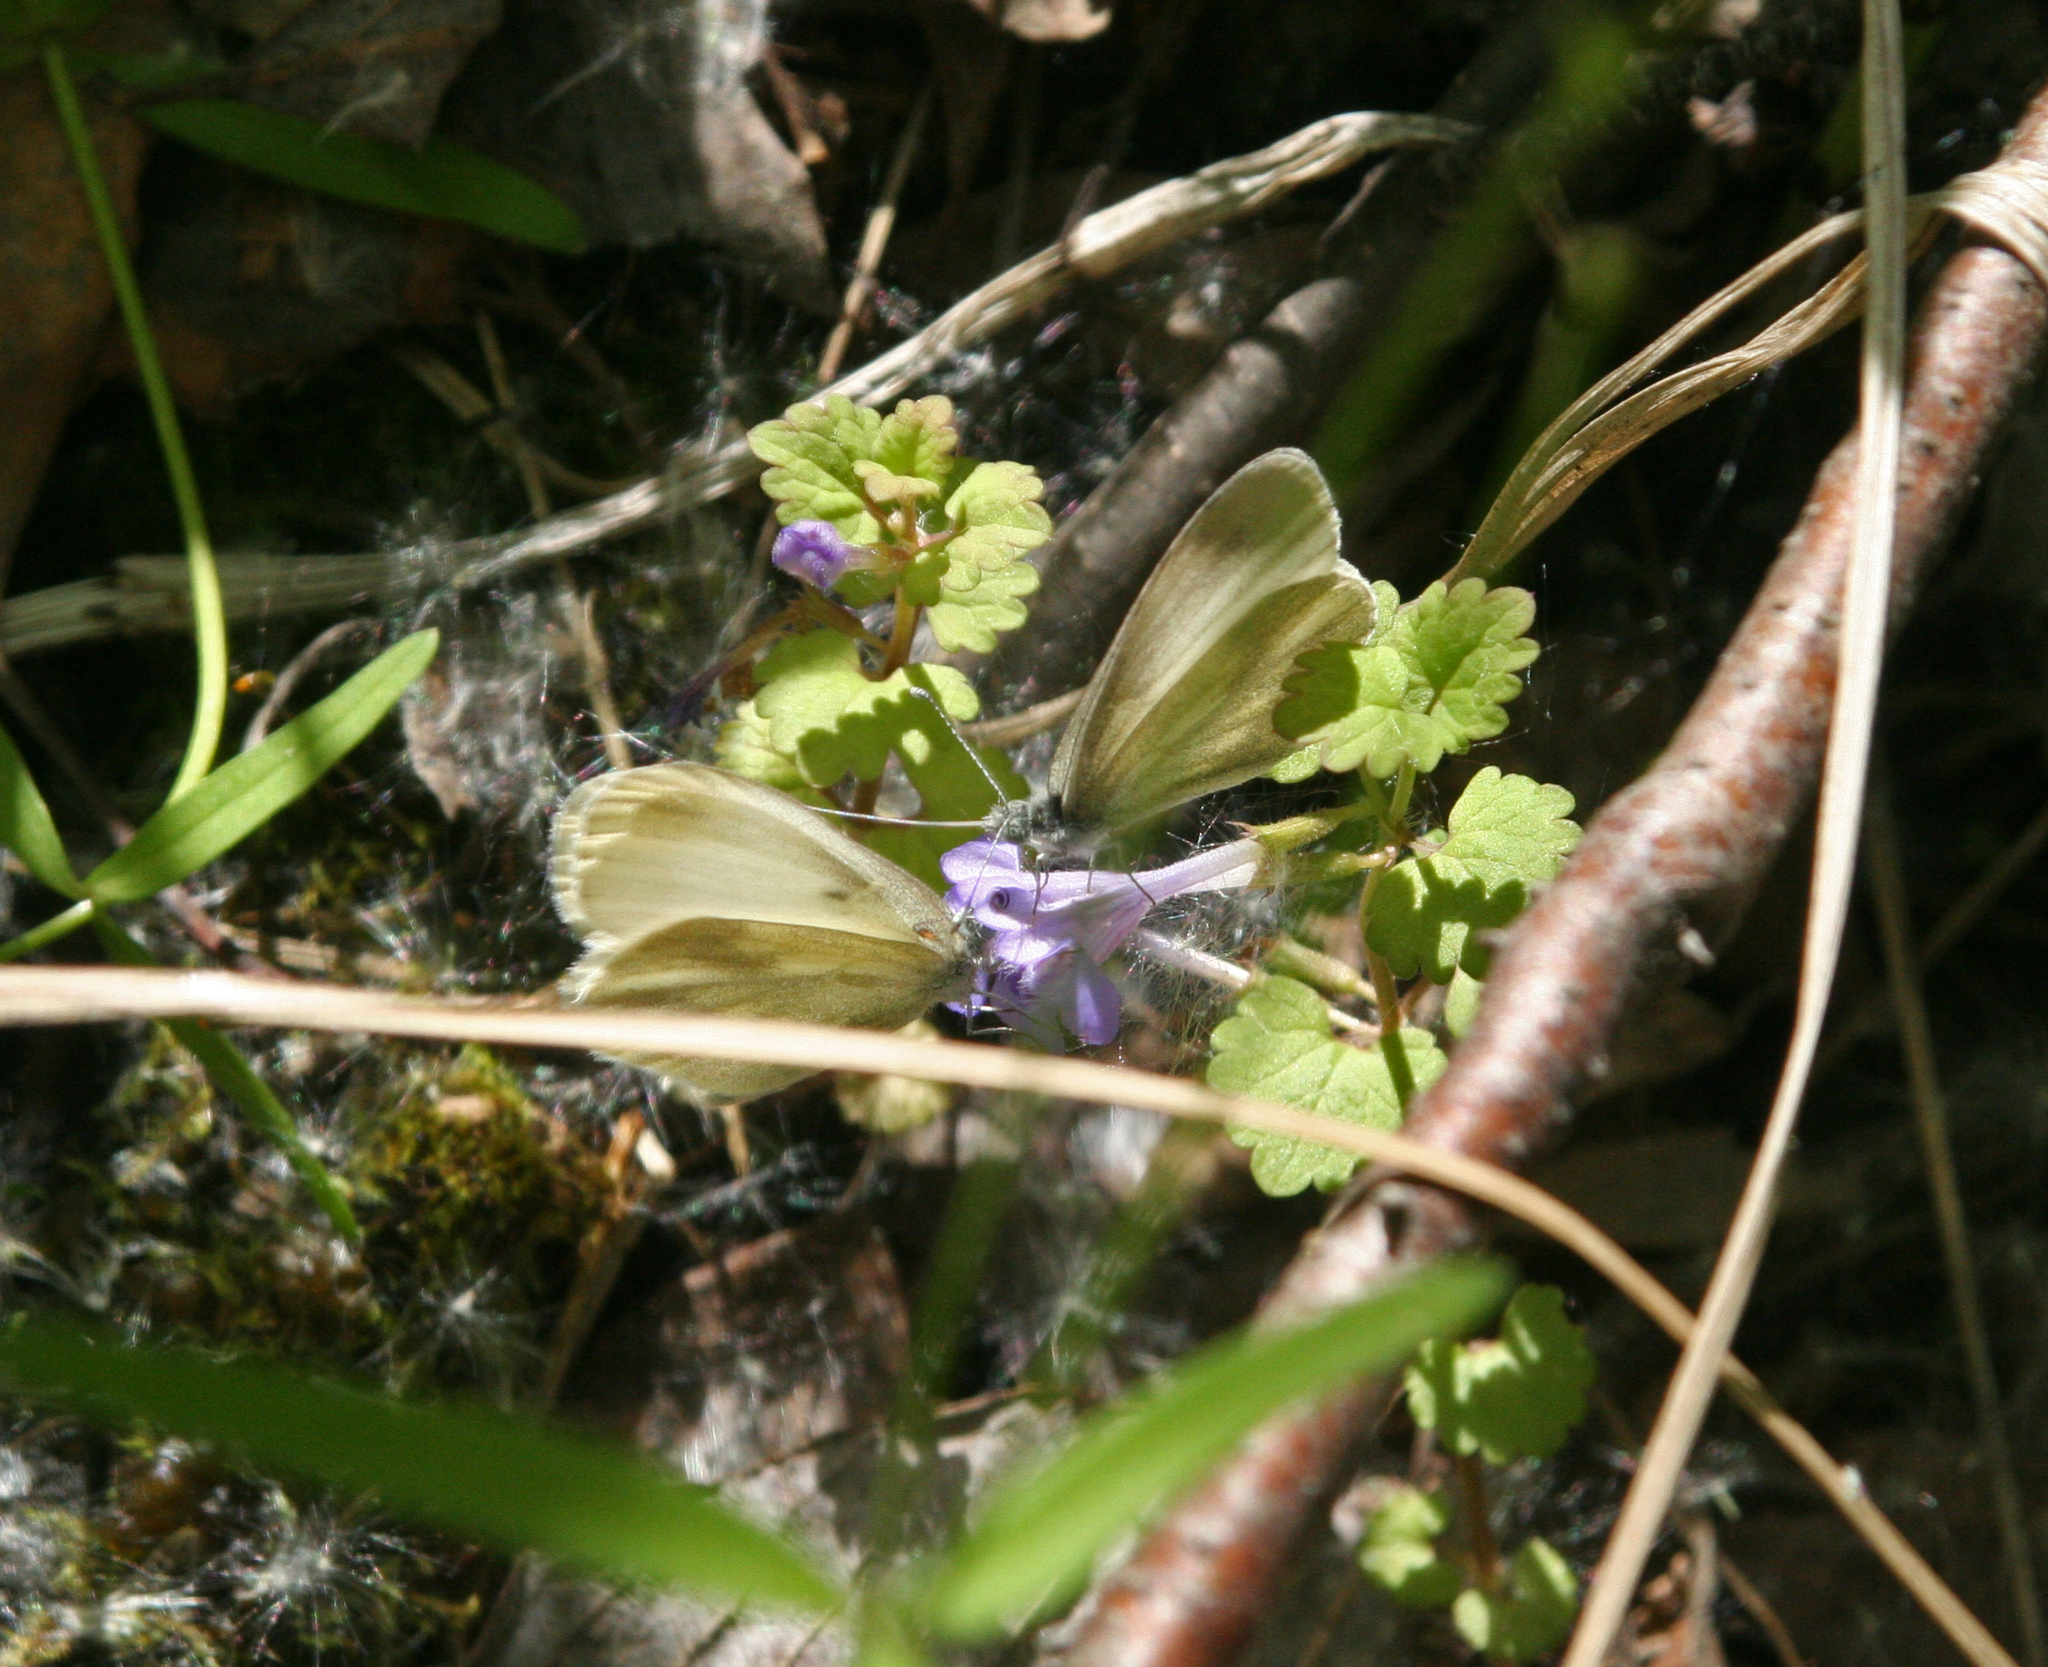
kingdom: Plantae
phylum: Tracheophyta
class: Magnoliopsida
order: Lamiales
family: Lamiaceae
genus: Glechoma
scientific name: Glechoma hederacea
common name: Ground ivy
